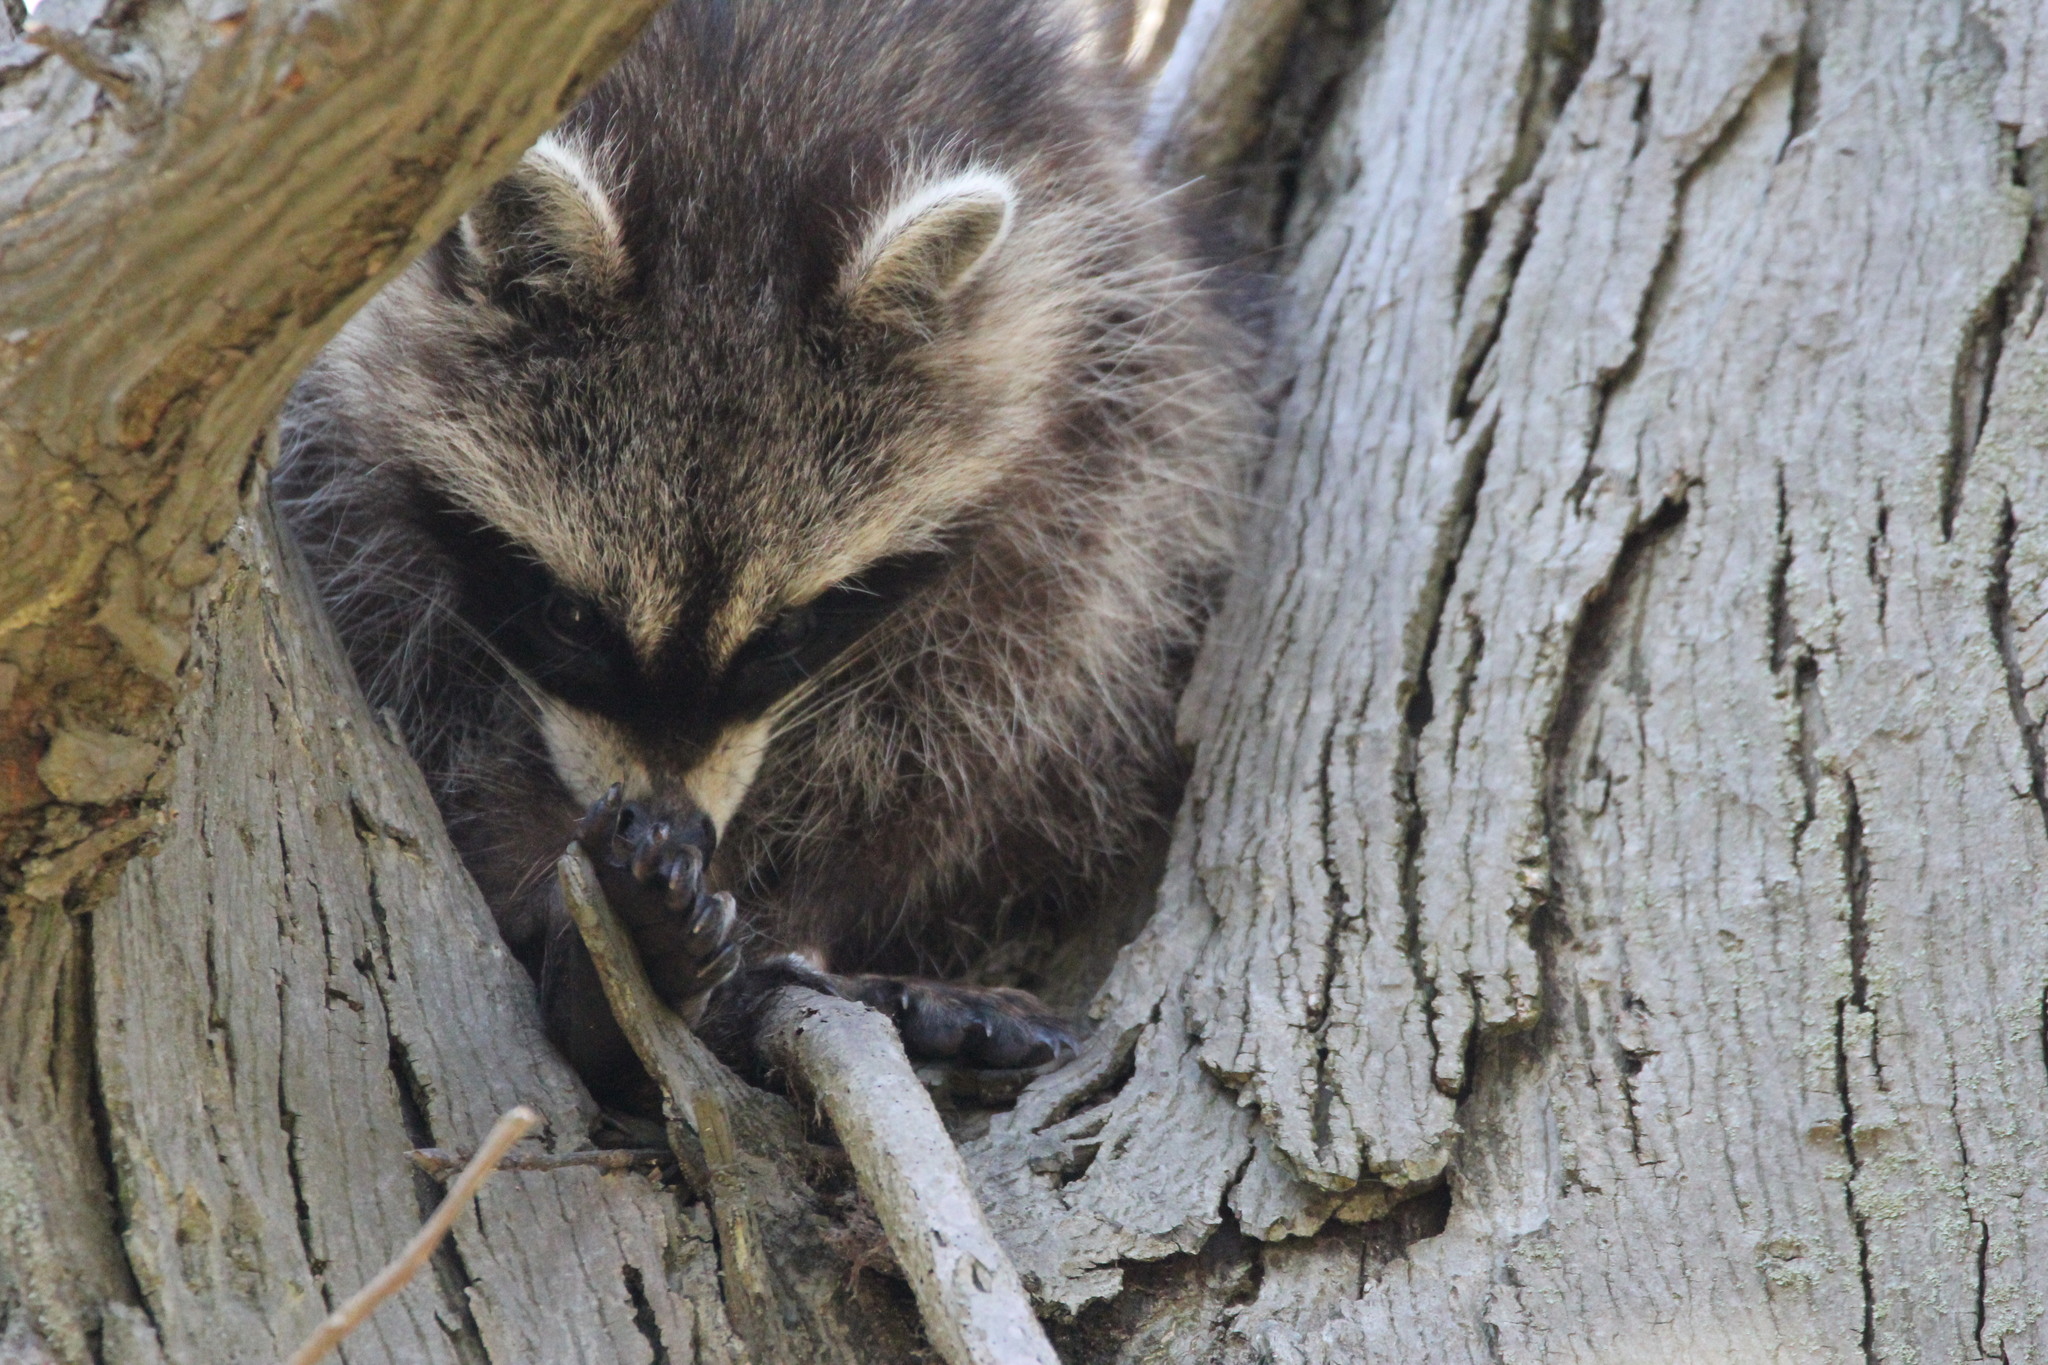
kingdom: Animalia
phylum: Chordata
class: Mammalia
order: Carnivora
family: Procyonidae
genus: Procyon
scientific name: Procyon lotor
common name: Raccoon
